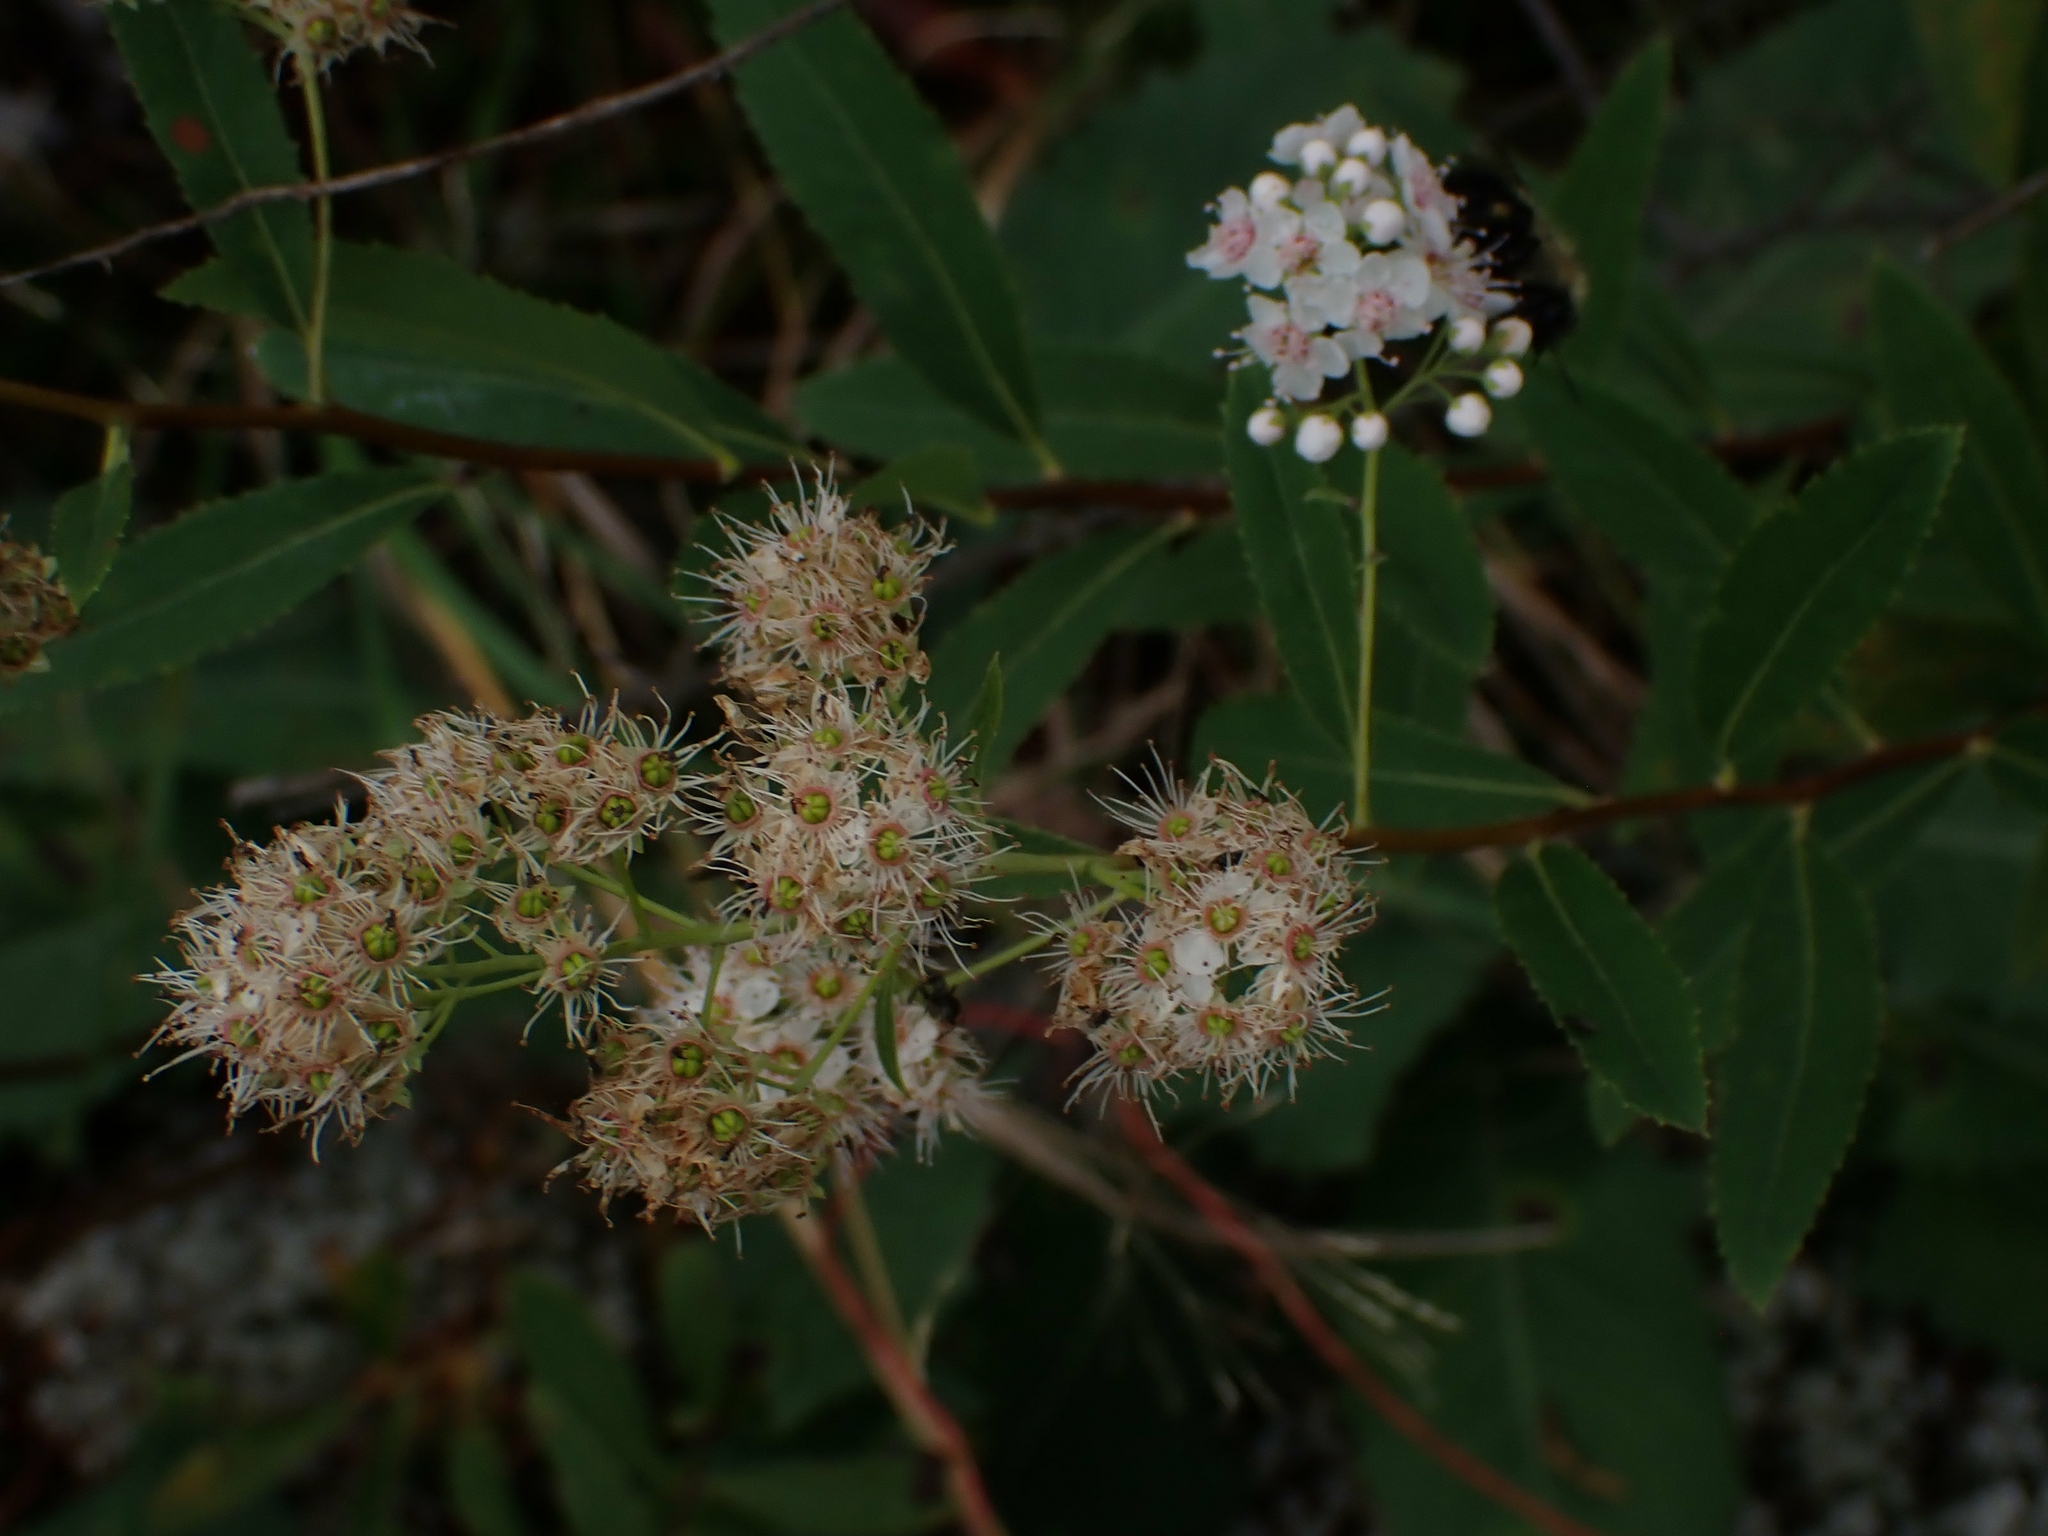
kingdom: Plantae
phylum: Tracheophyta
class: Magnoliopsida
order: Rosales
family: Rosaceae
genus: Spiraea
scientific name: Spiraea alba
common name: Pale bridewort
